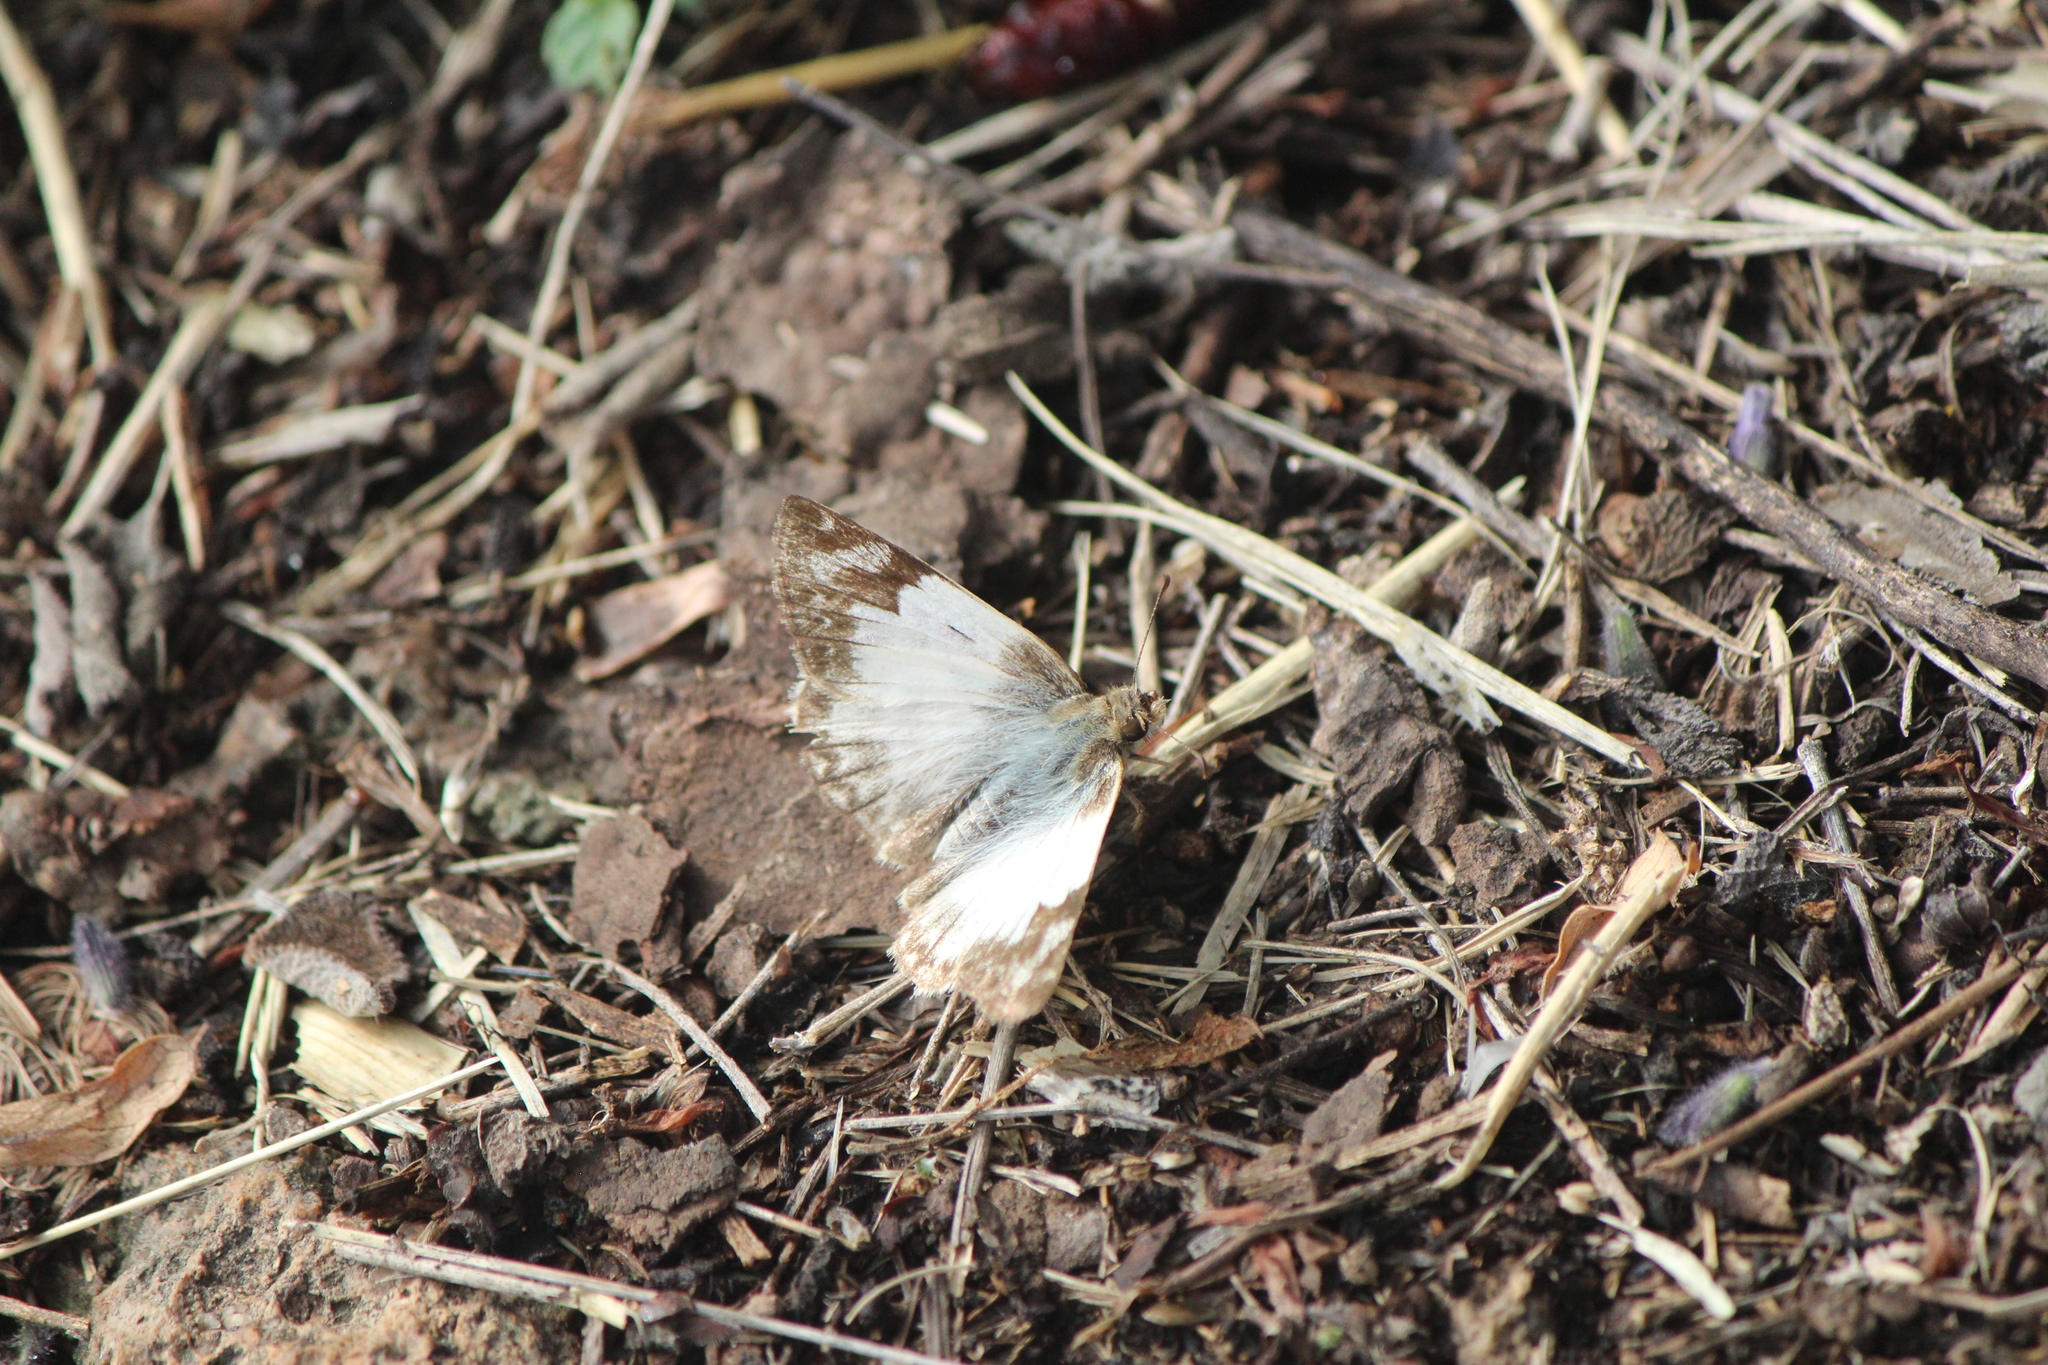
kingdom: Animalia
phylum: Arthropoda
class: Insecta
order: Lepidoptera
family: Hesperiidae
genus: Heliopetes
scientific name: Heliopetes laviana
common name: Laviana white-skipper
